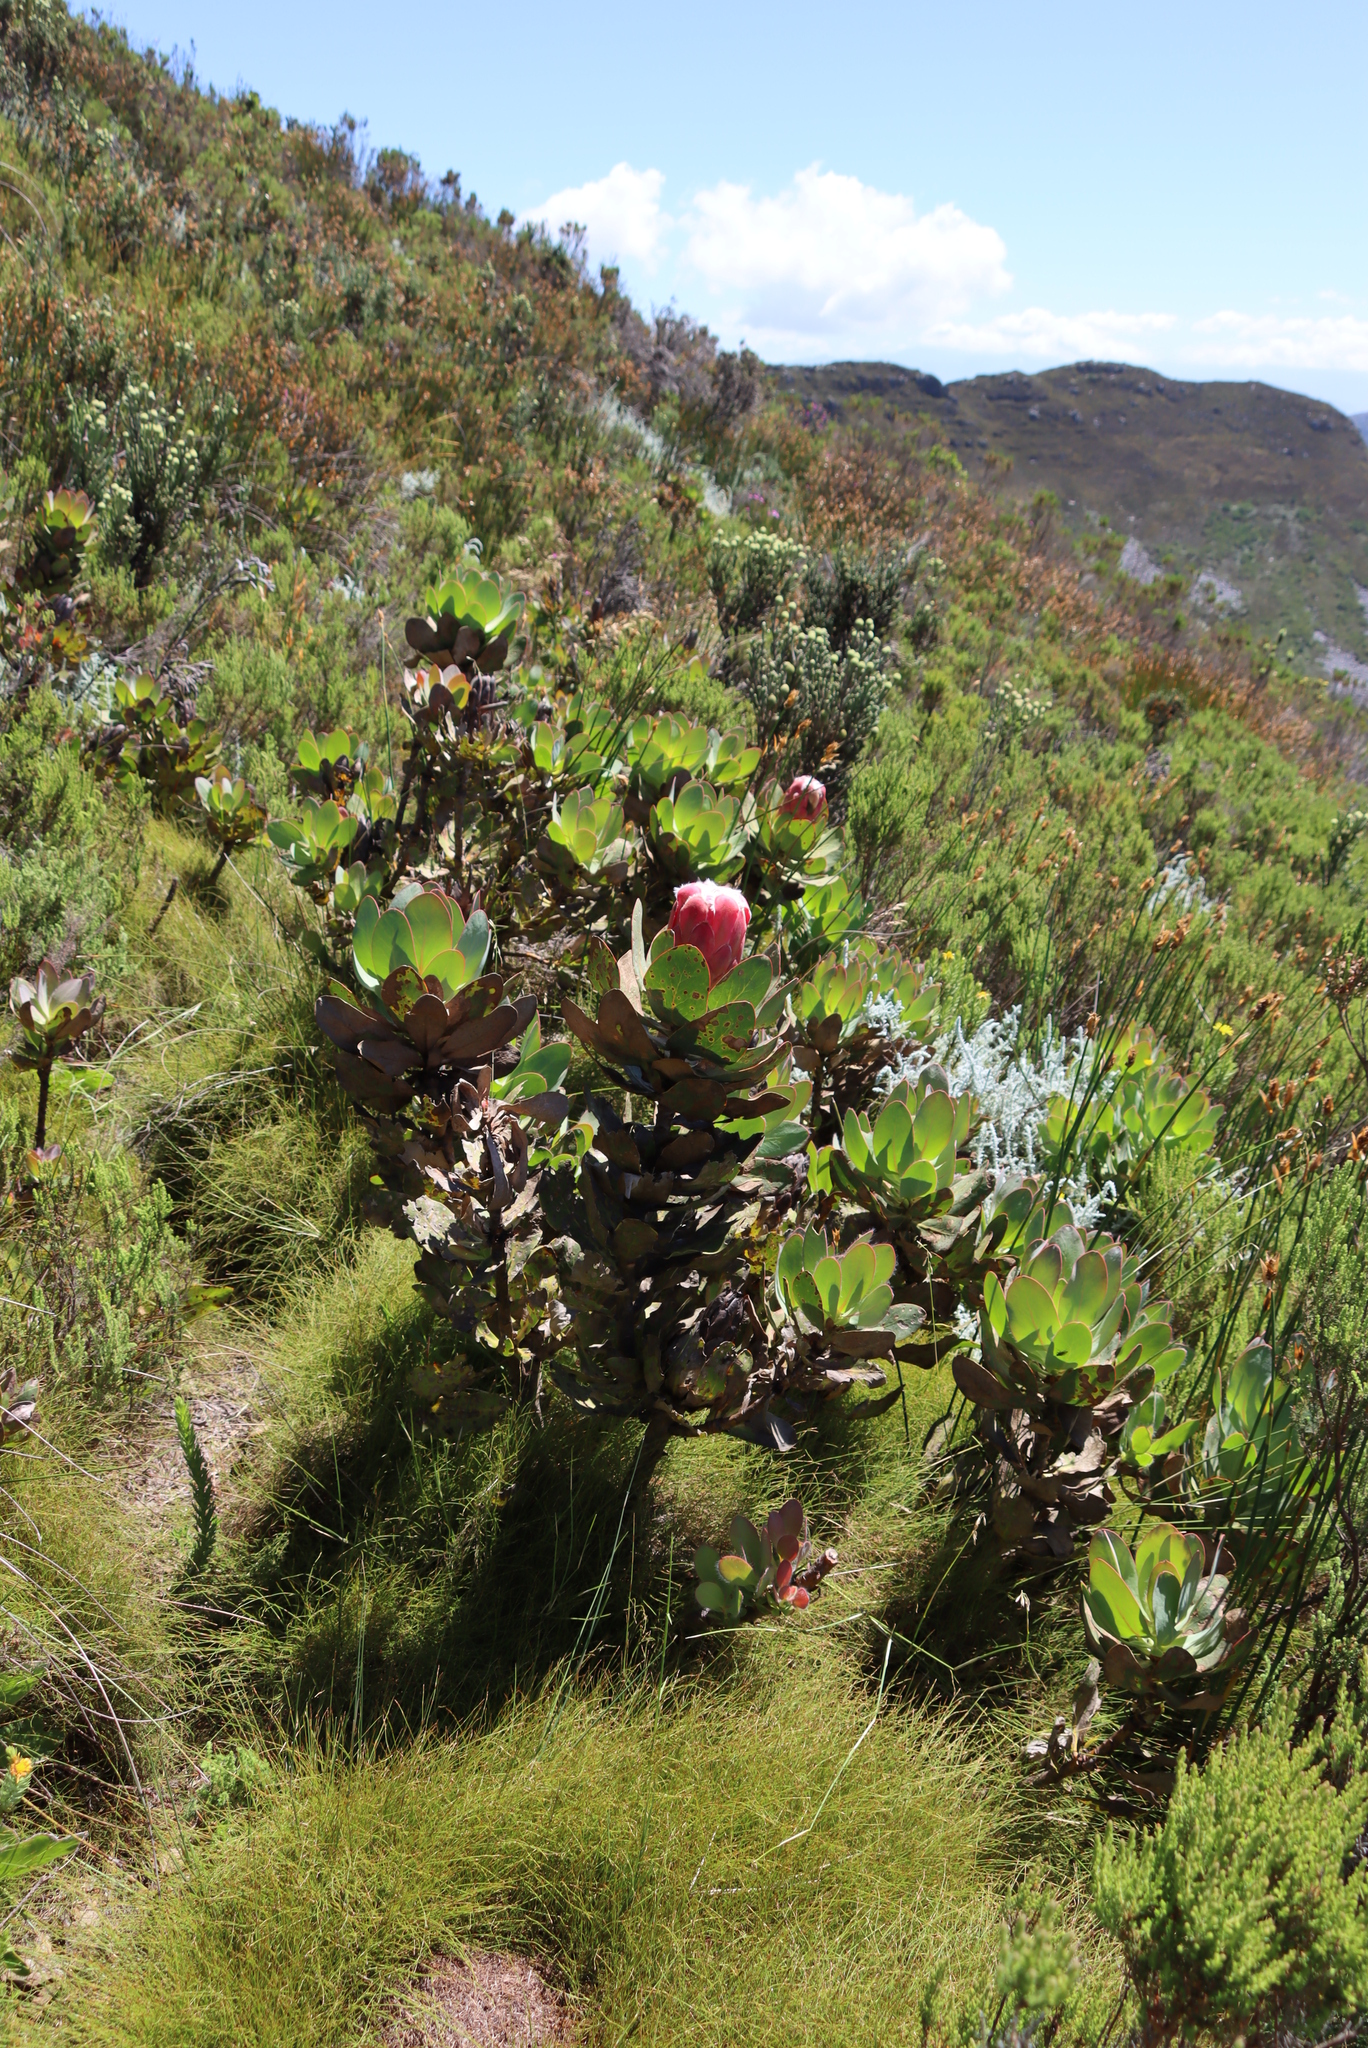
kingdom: Plantae
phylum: Tracheophyta
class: Magnoliopsida
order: Proteales
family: Proteaceae
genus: Protea
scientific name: Protea grandiceps
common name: Red sugarbush
